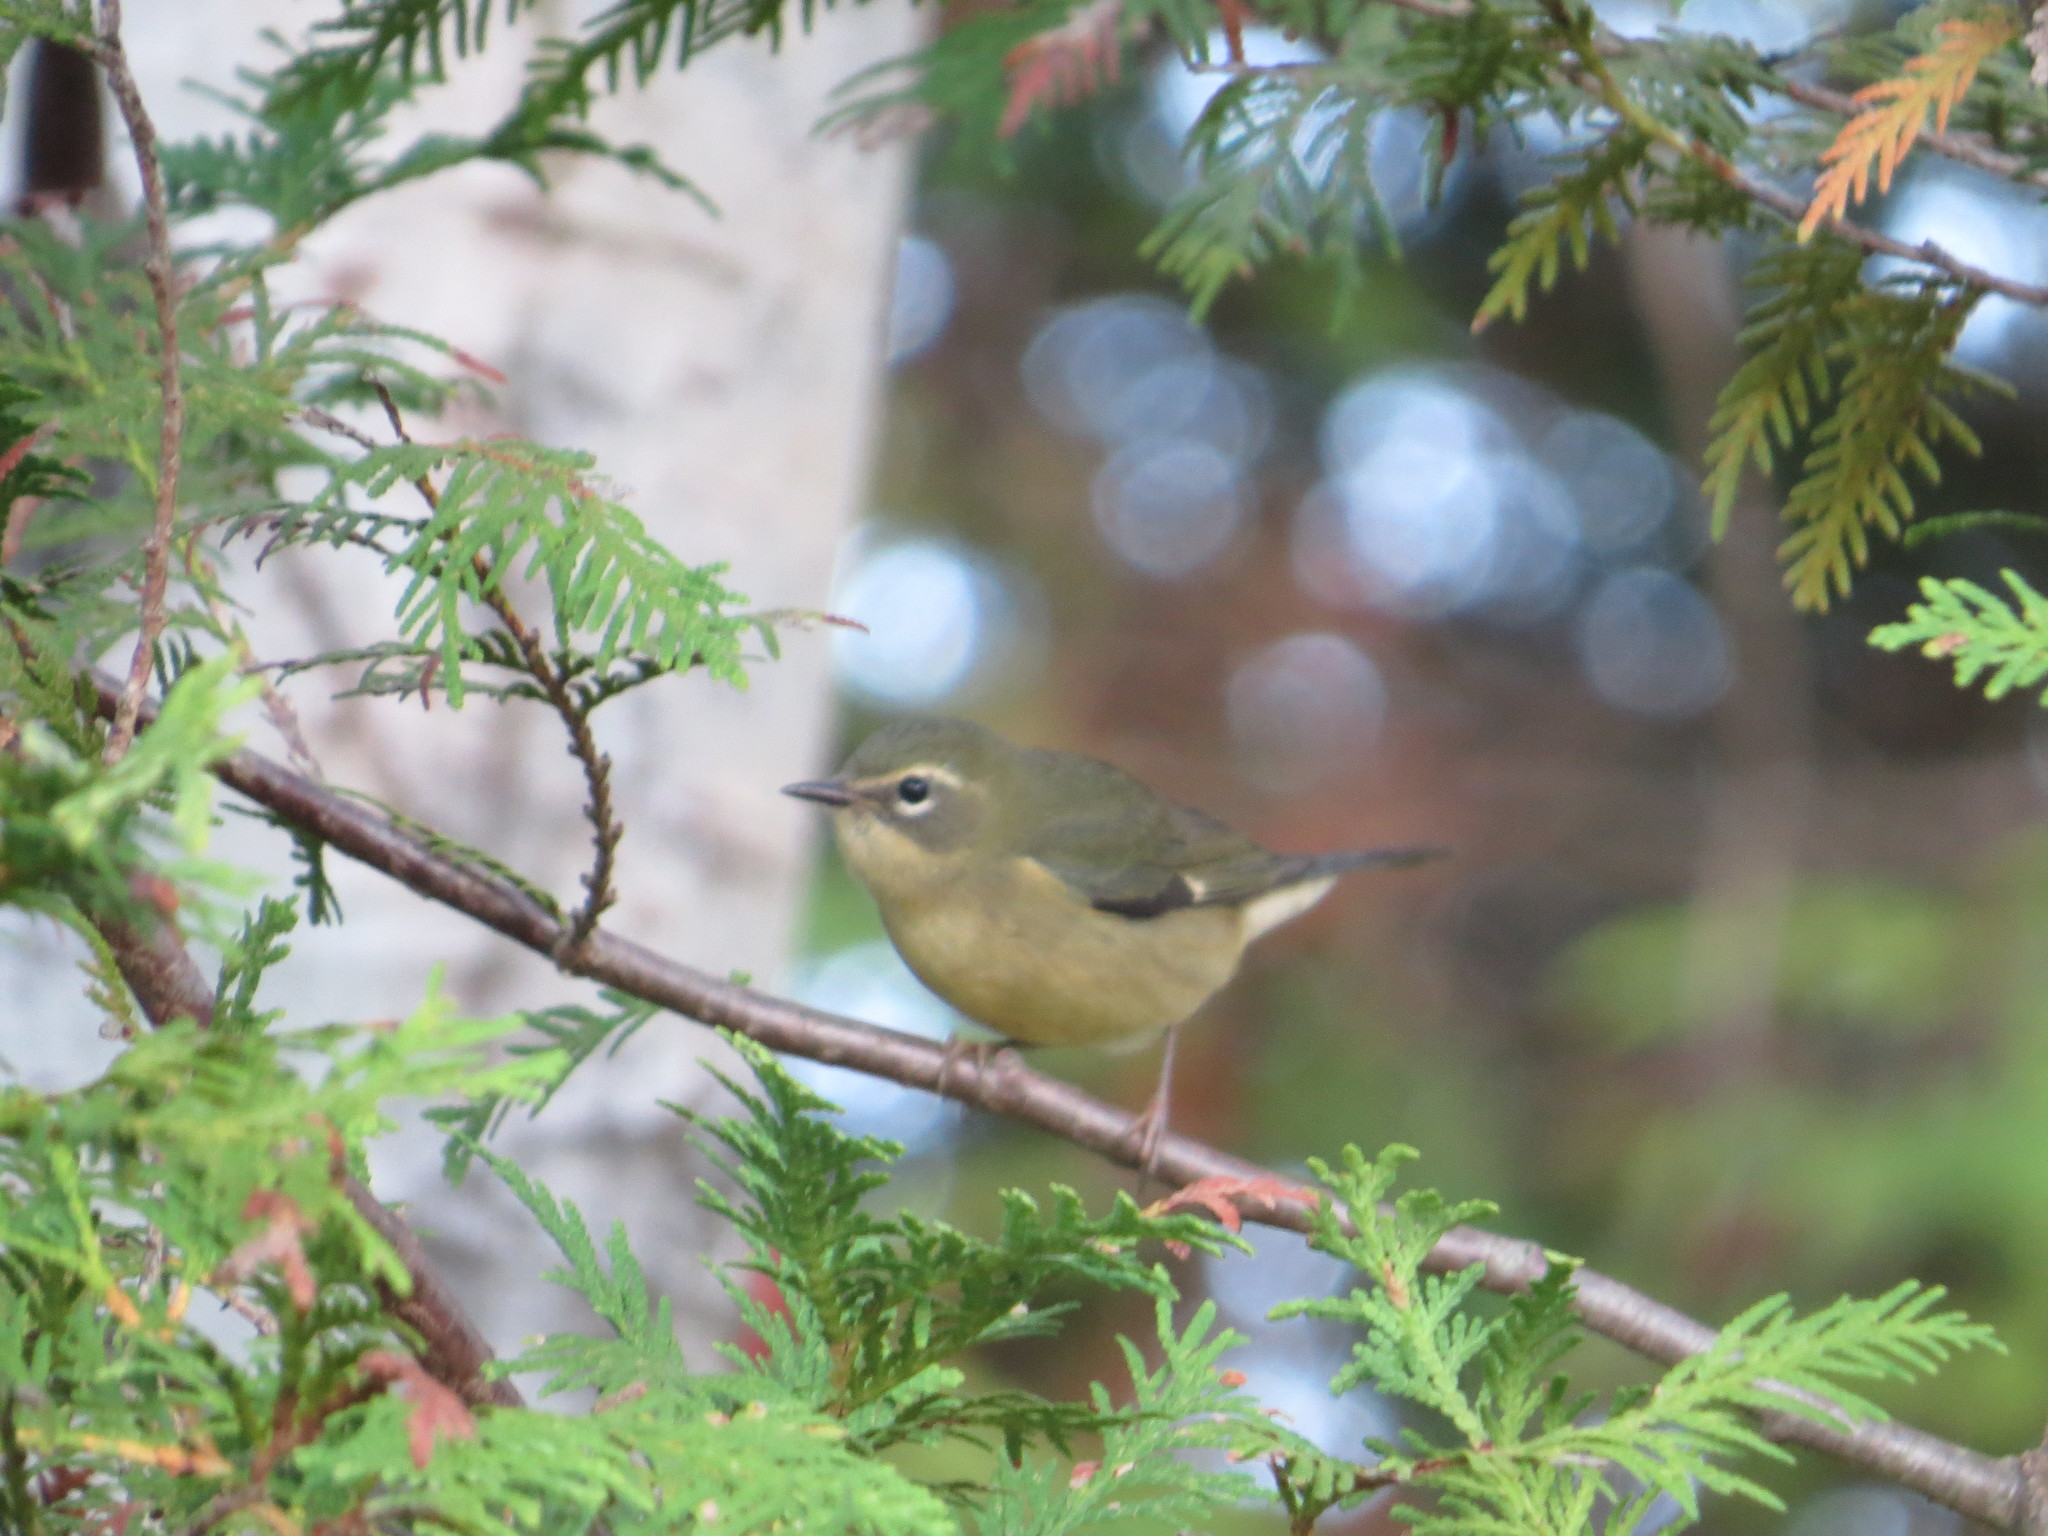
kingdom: Animalia
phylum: Chordata
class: Aves
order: Passeriformes
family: Parulidae
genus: Setophaga
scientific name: Setophaga caerulescens
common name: Black-throated blue warbler
